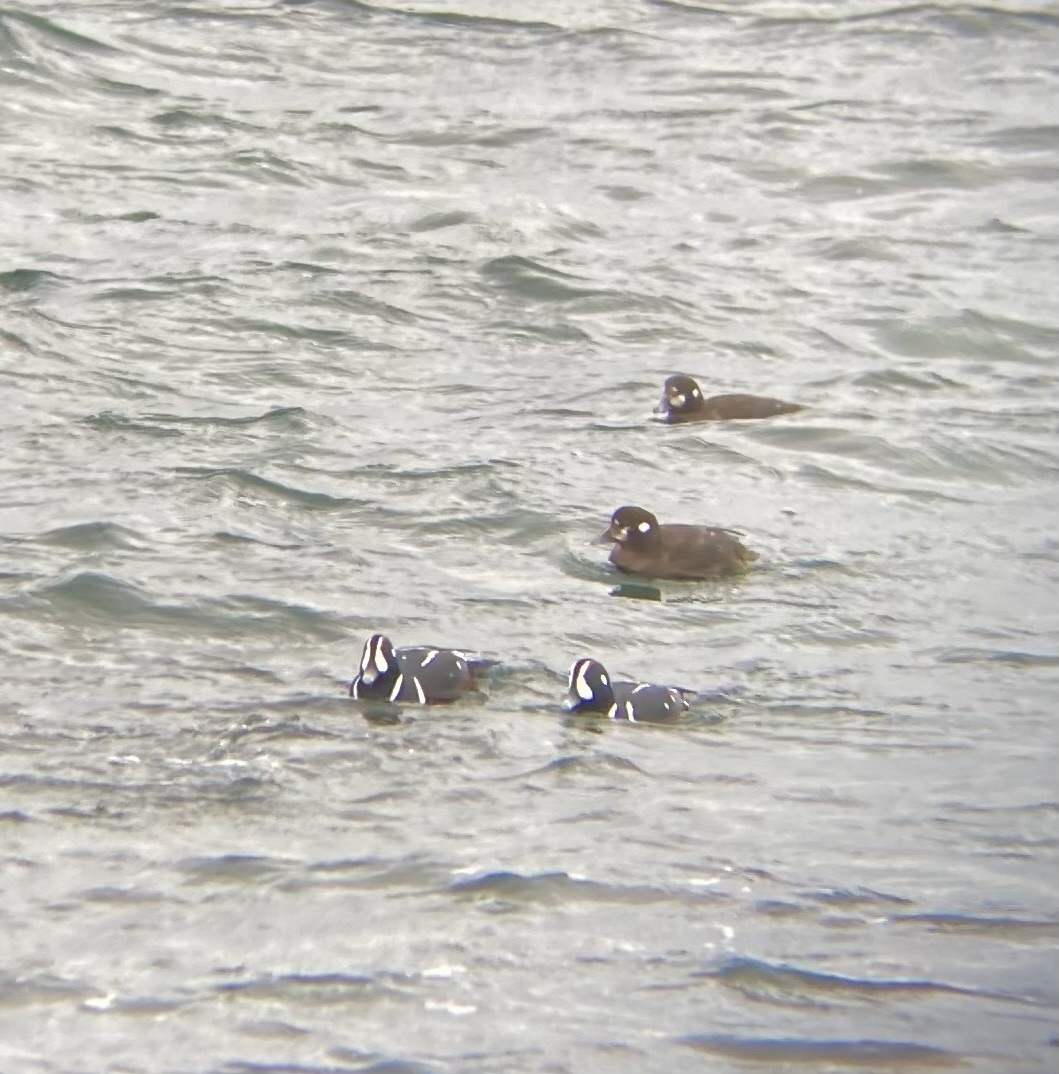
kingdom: Animalia
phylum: Chordata
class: Aves
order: Anseriformes
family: Anatidae
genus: Histrionicus
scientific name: Histrionicus histrionicus
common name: Harlequin duck
